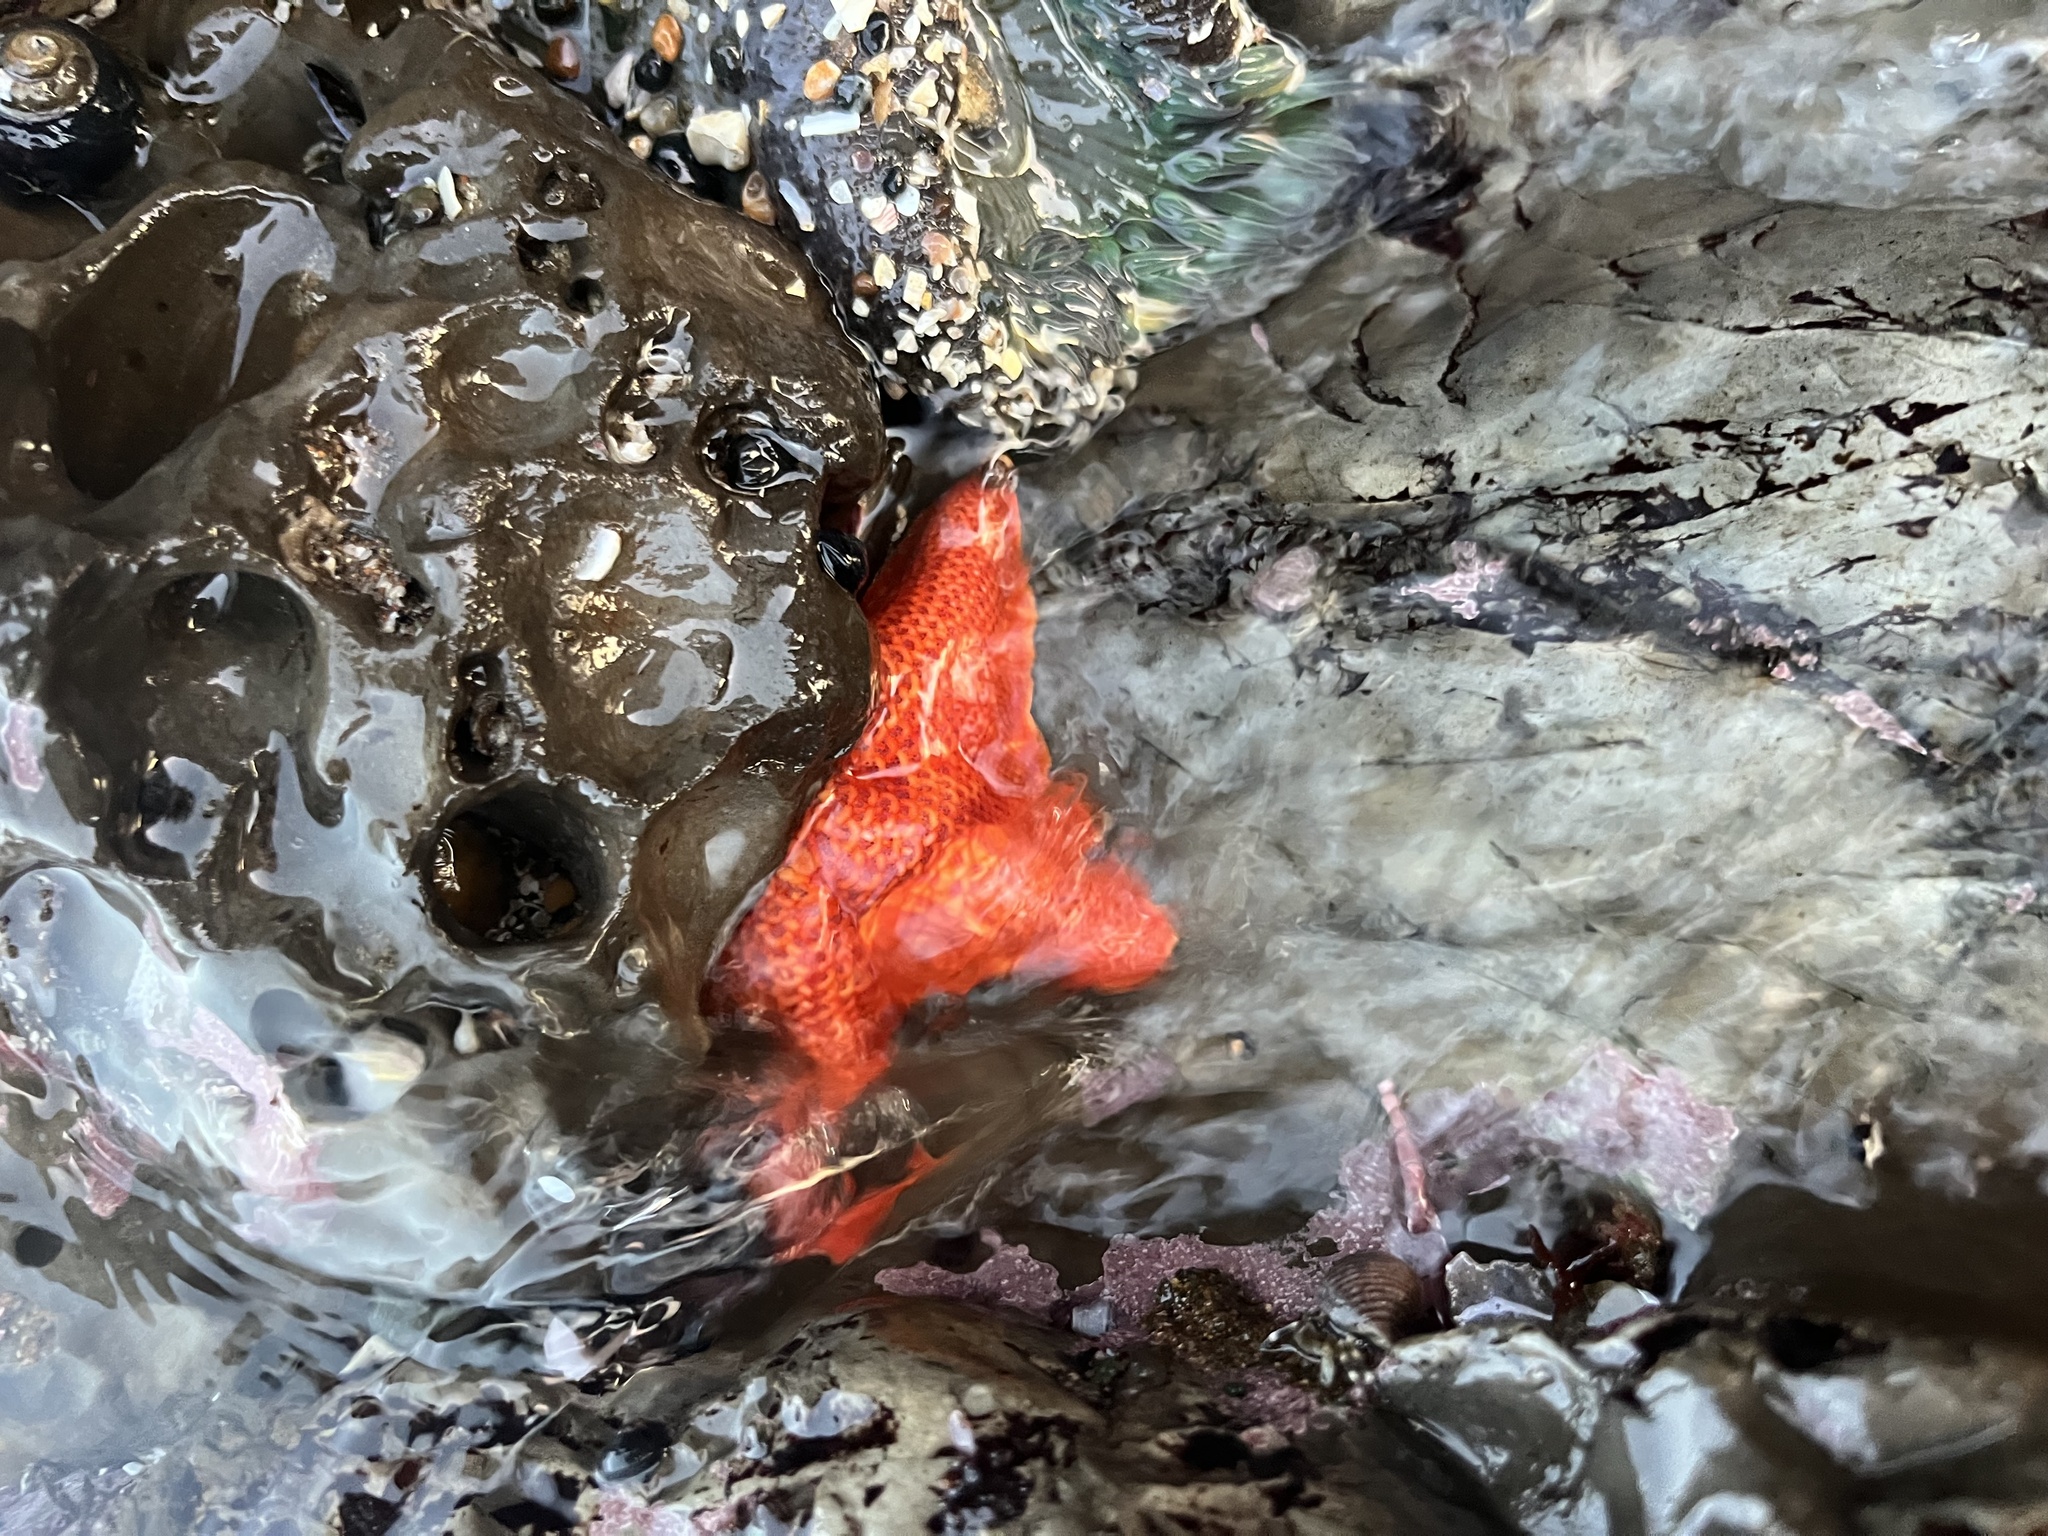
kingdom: Animalia
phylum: Echinodermata
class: Asteroidea
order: Valvatida
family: Asterinidae
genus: Patiria
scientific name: Patiria miniata
